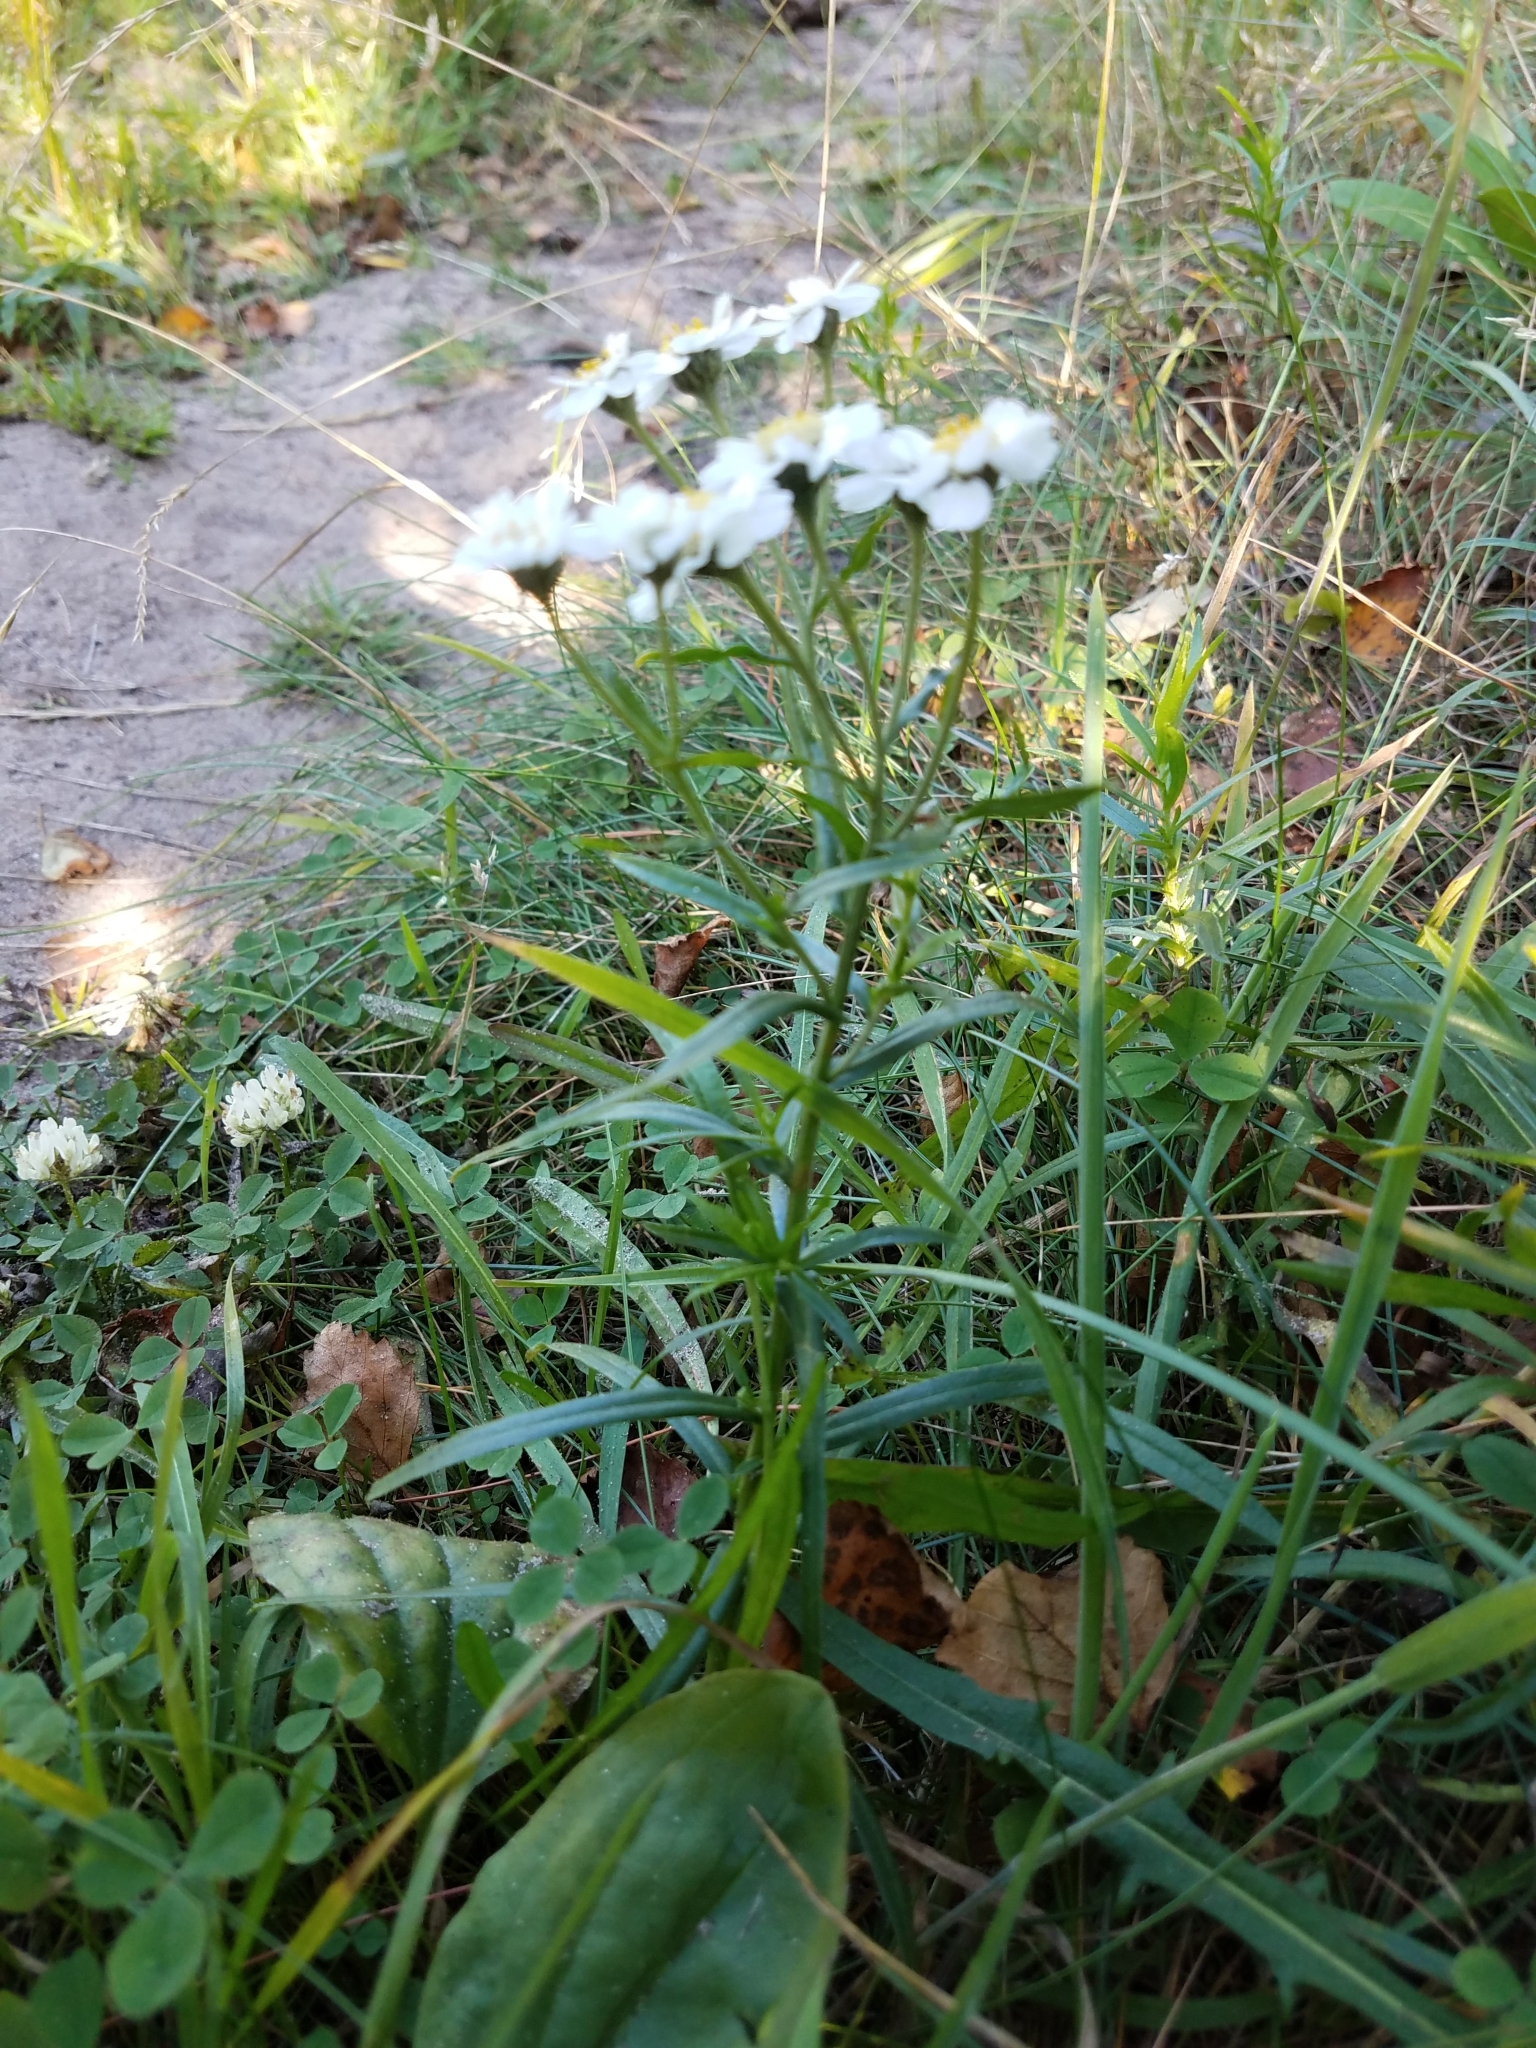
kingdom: Plantae
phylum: Tracheophyta
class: Magnoliopsida
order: Asterales
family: Asteraceae
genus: Achillea
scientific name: Achillea ptarmica
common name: Sneezeweed
